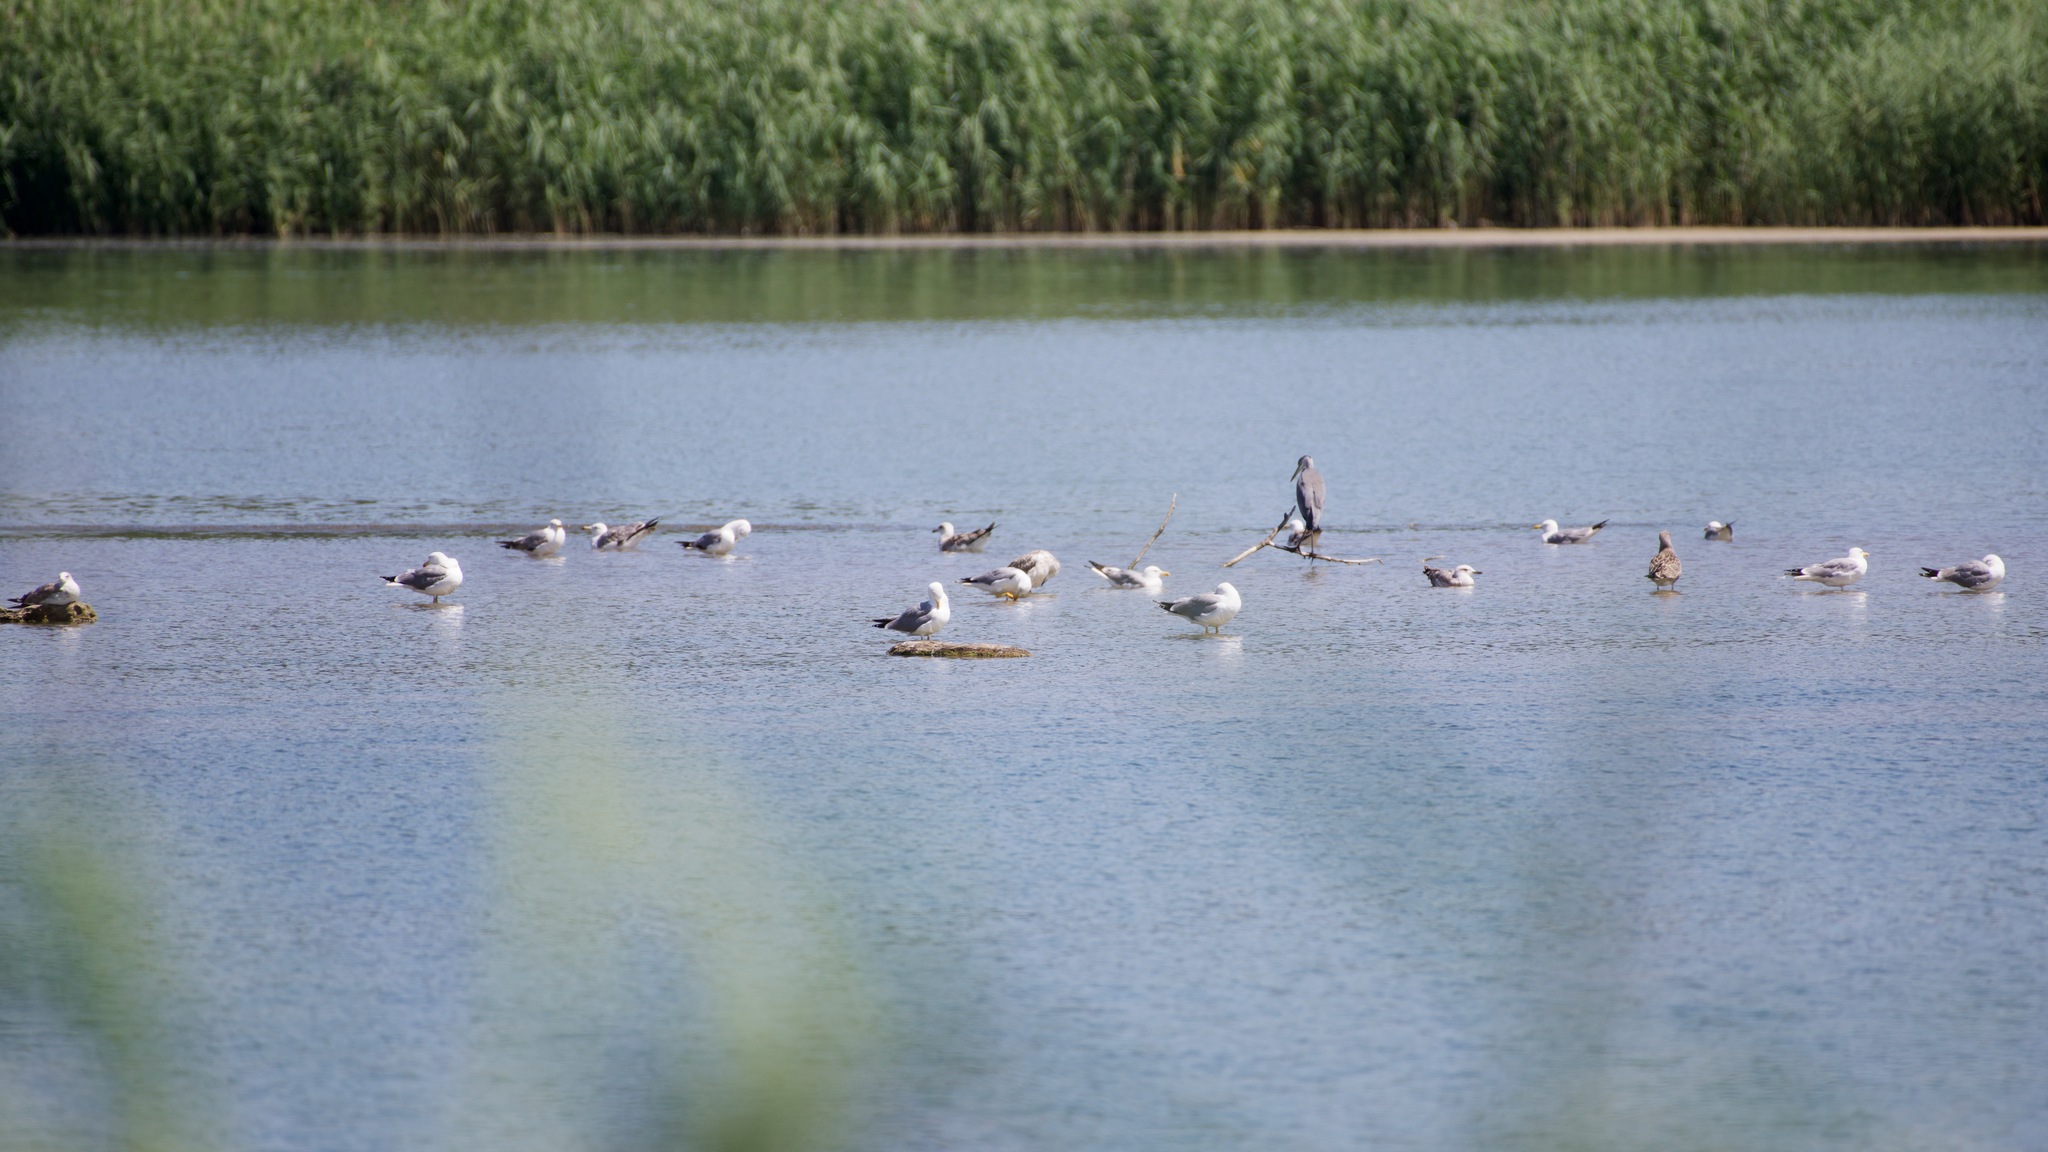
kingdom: Animalia
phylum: Chordata
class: Aves
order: Charadriiformes
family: Laridae
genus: Larus
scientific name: Larus michahellis
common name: Yellow-legged gull
